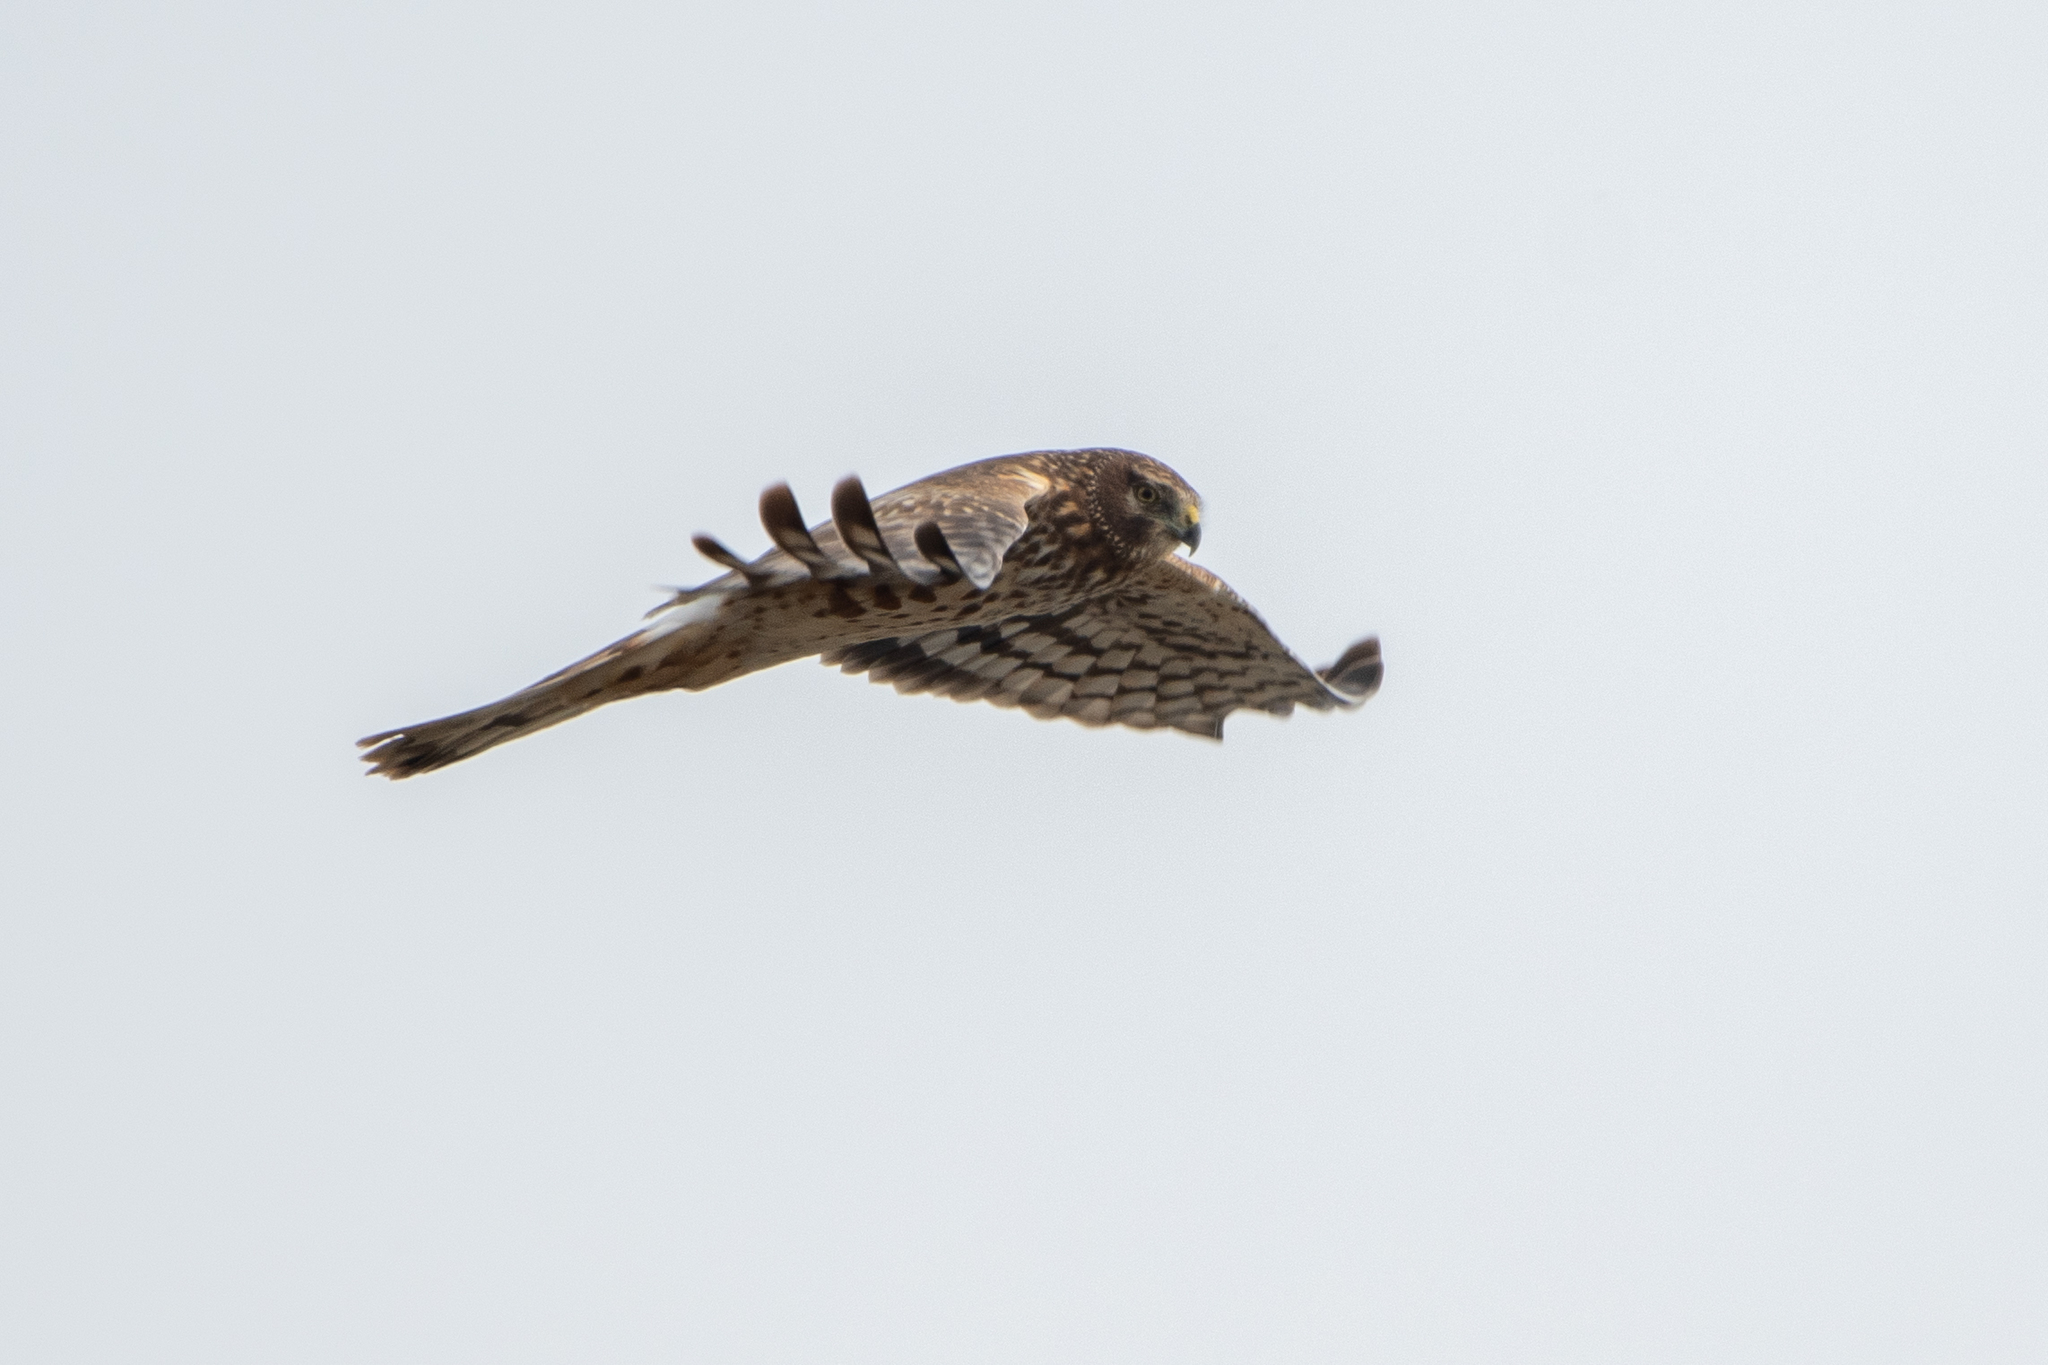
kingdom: Animalia
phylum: Chordata
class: Aves
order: Accipitriformes
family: Accipitridae
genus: Circus
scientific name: Circus cyaneus
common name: Hen harrier
